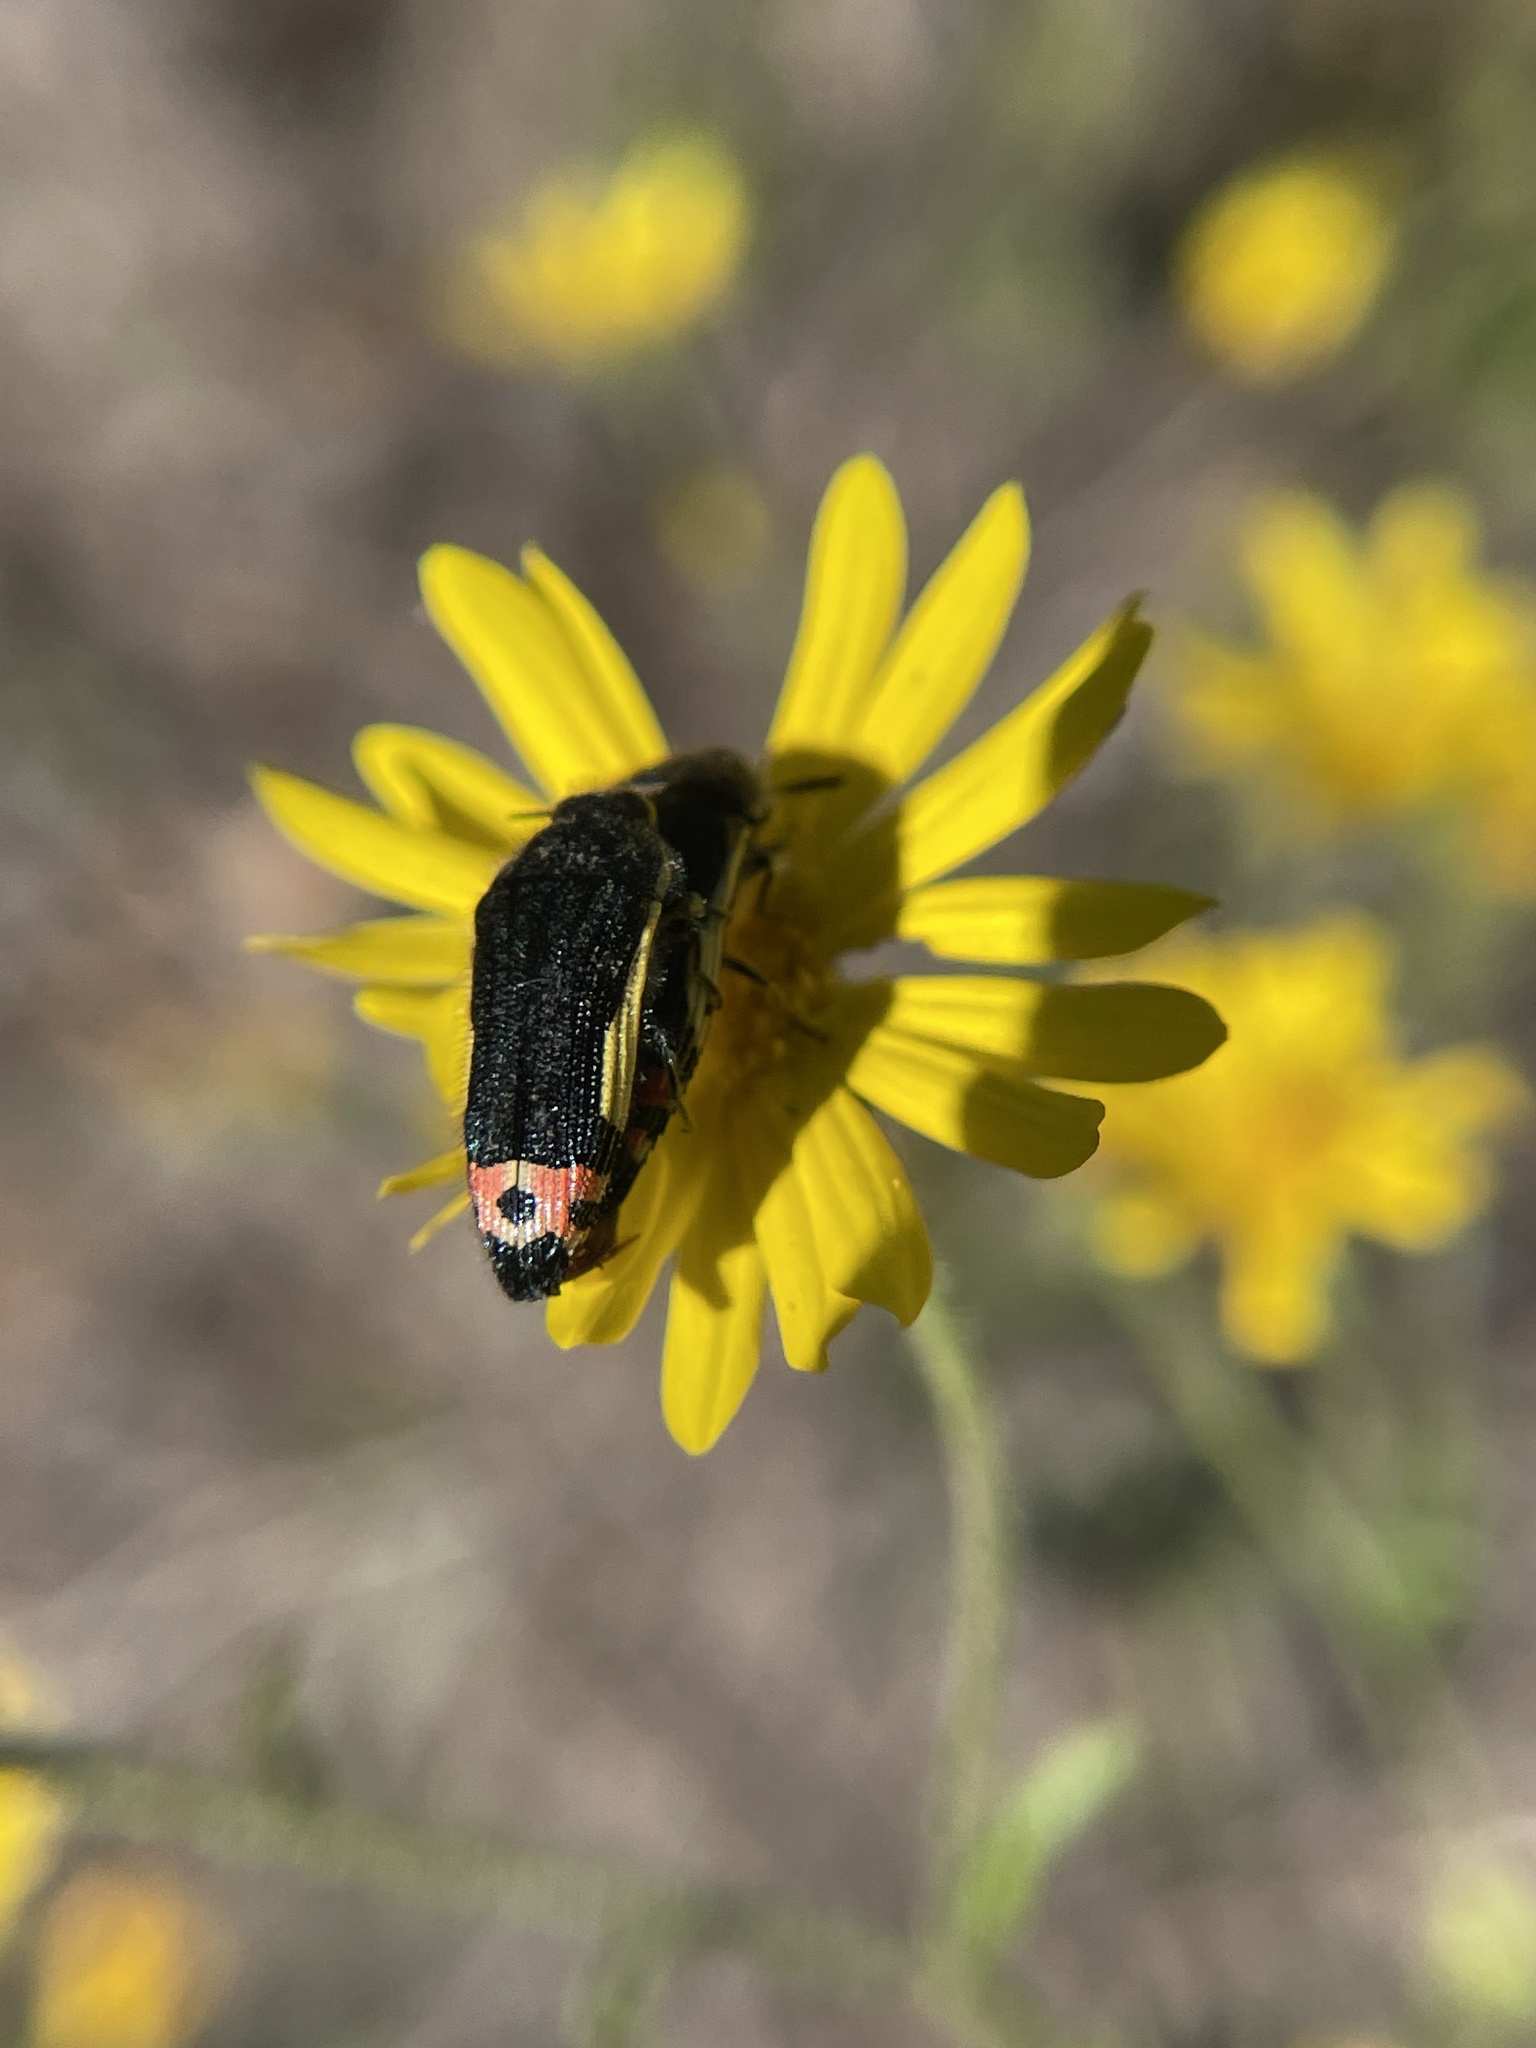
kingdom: Animalia
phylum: Arthropoda
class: Insecta
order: Coleoptera
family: Buprestidae
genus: Acmaeodera
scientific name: Acmaeodera flavomarginata
